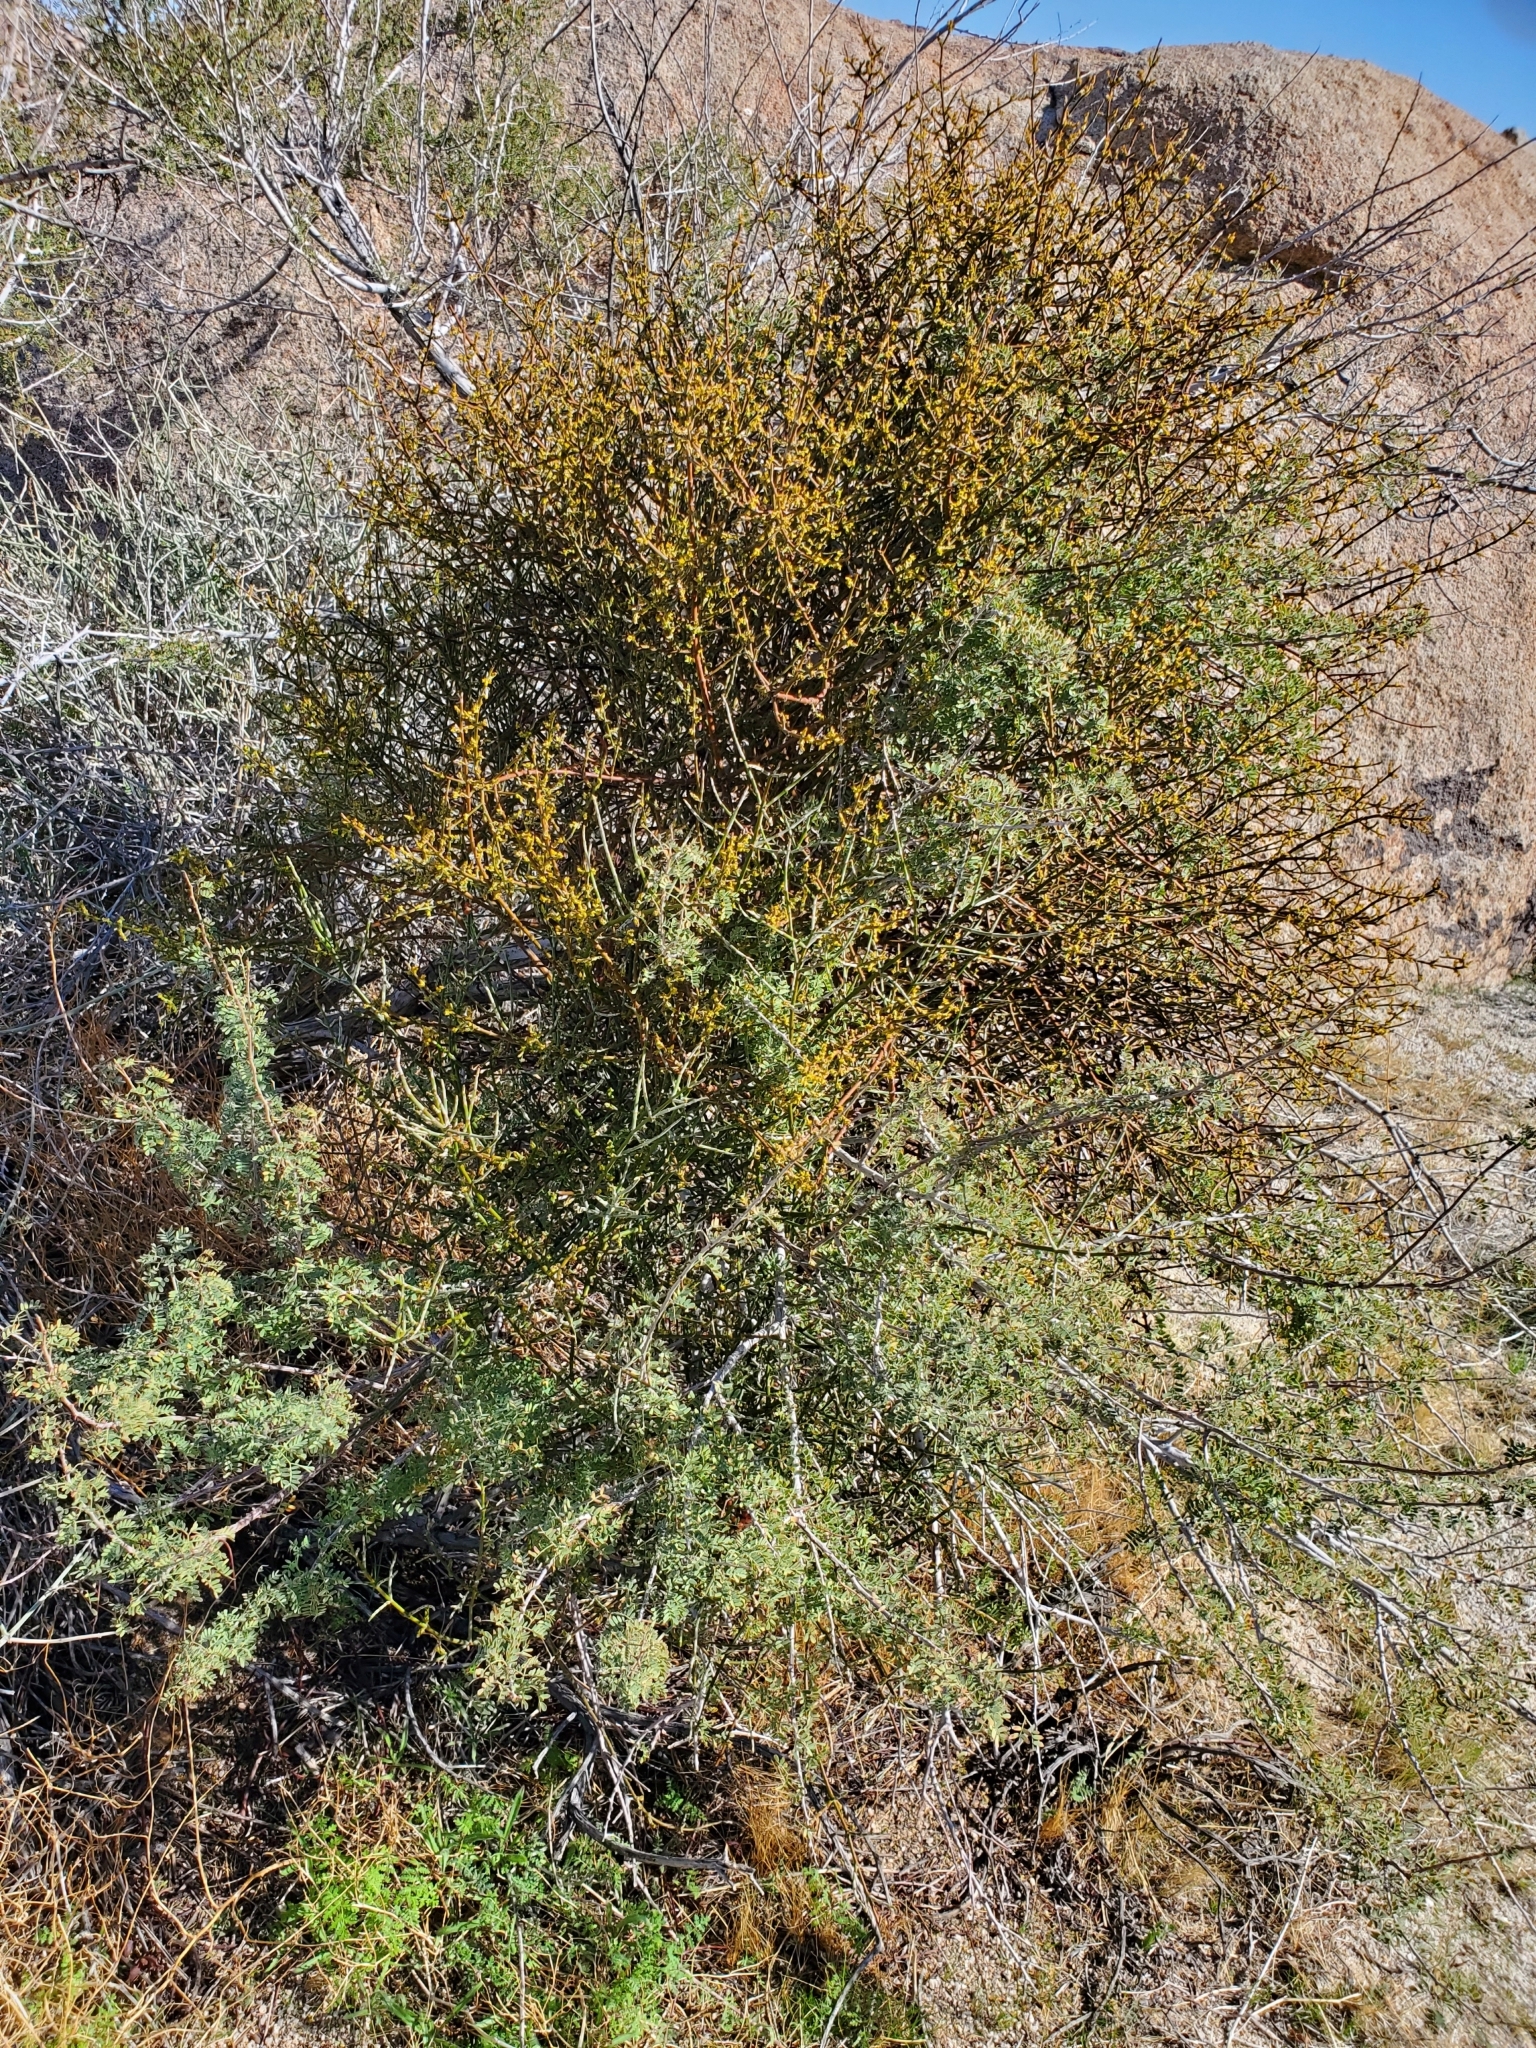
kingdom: Plantae
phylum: Tracheophyta
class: Magnoliopsida
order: Santalales
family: Viscaceae
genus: Phoradendron
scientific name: Phoradendron californicum
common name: Acacia mistletoe
